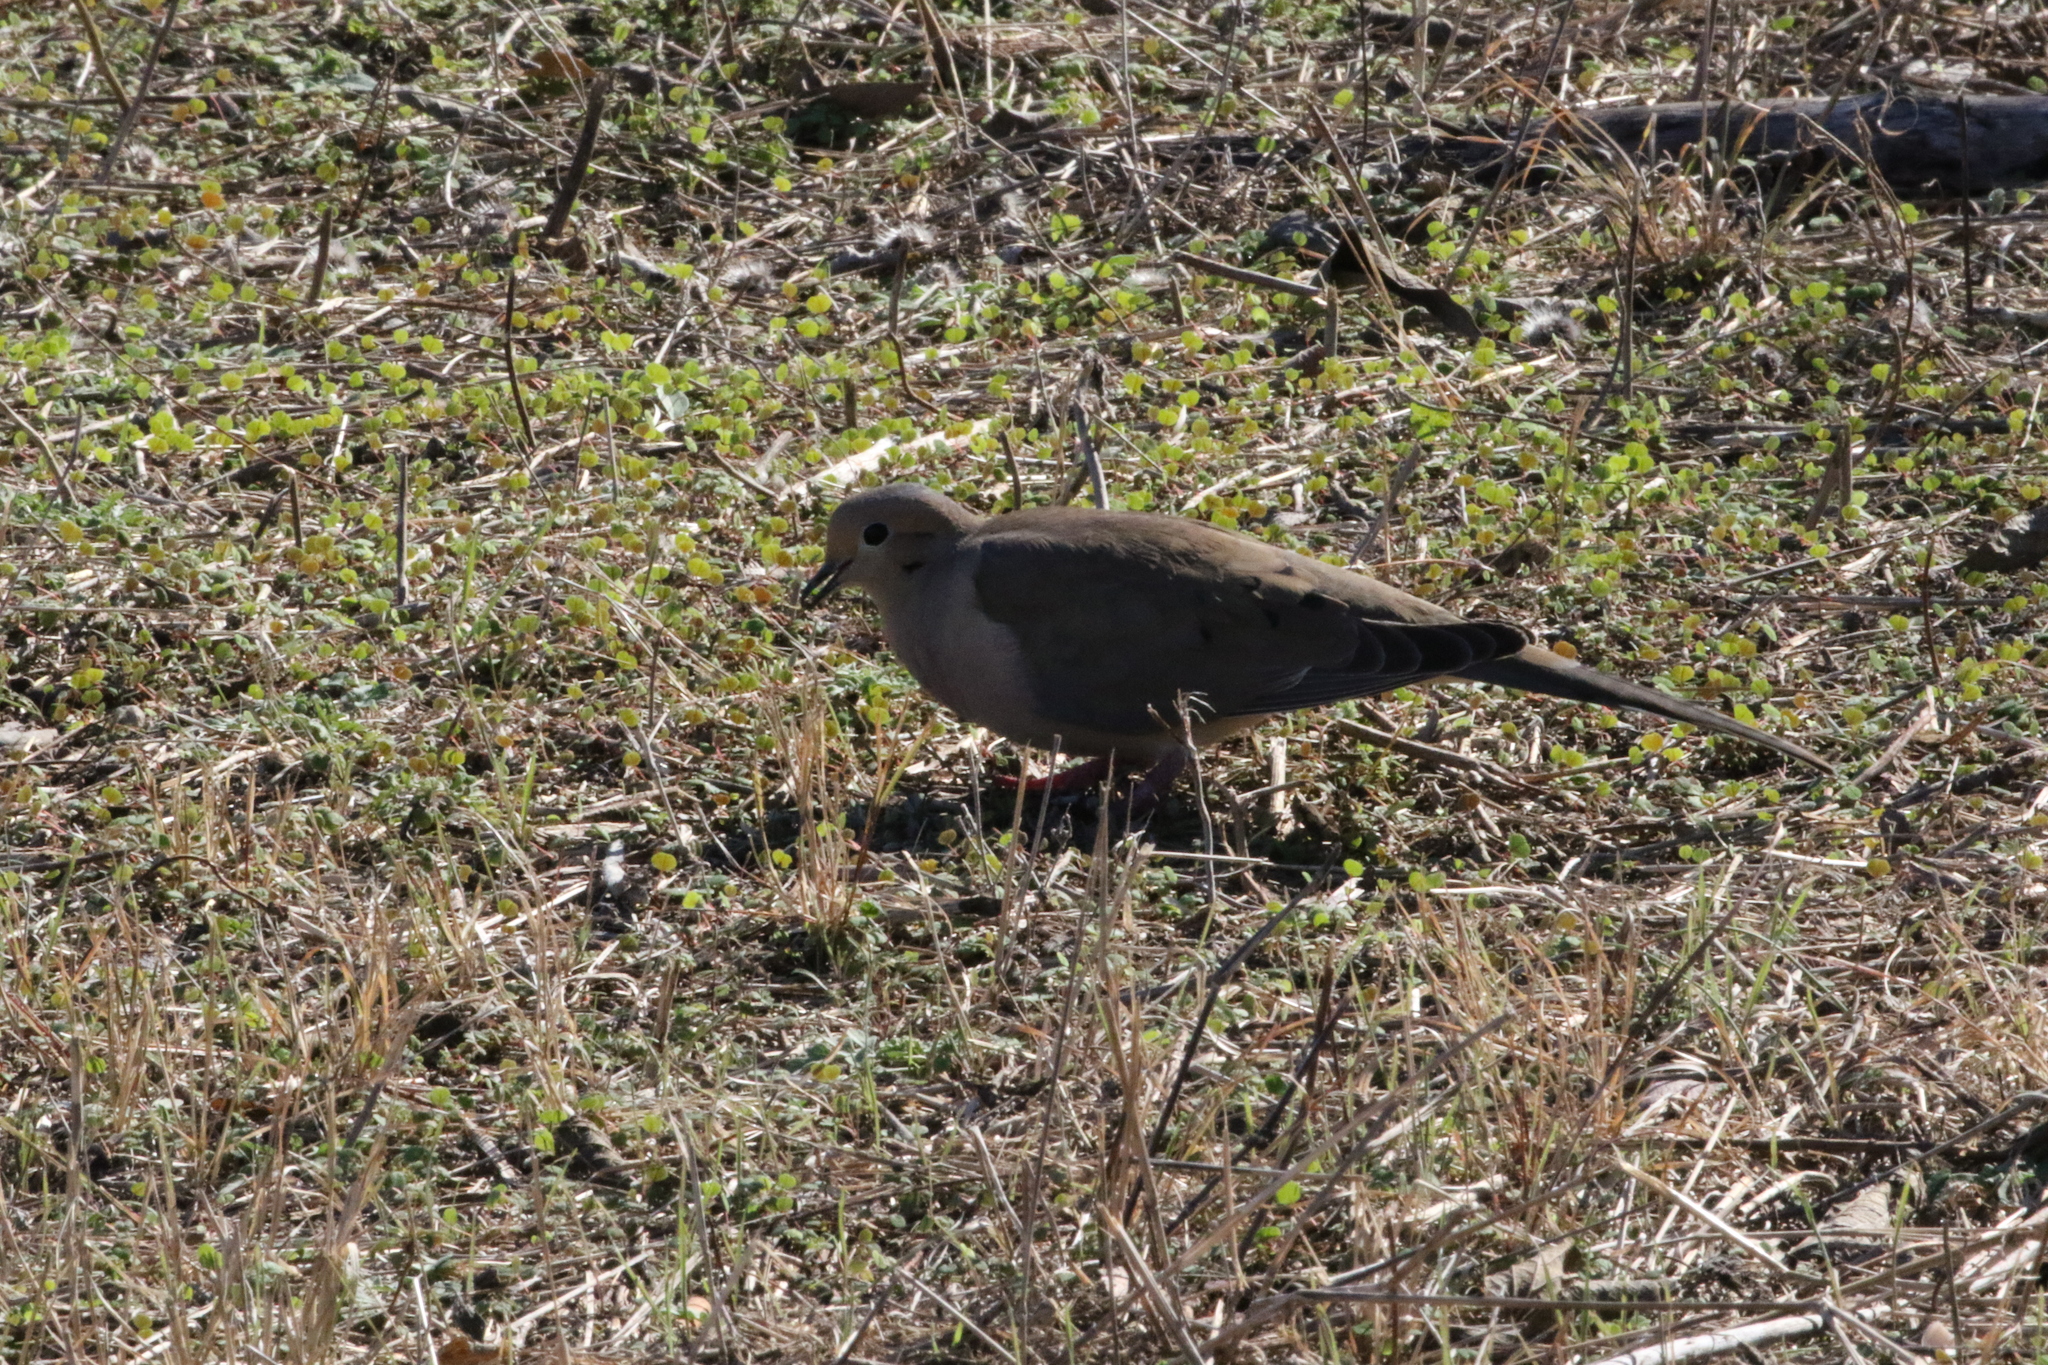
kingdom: Animalia
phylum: Chordata
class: Aves
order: Columbiformes
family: Columbidae
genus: Zenaida
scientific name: Zenaida macroura
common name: Mourning dove
